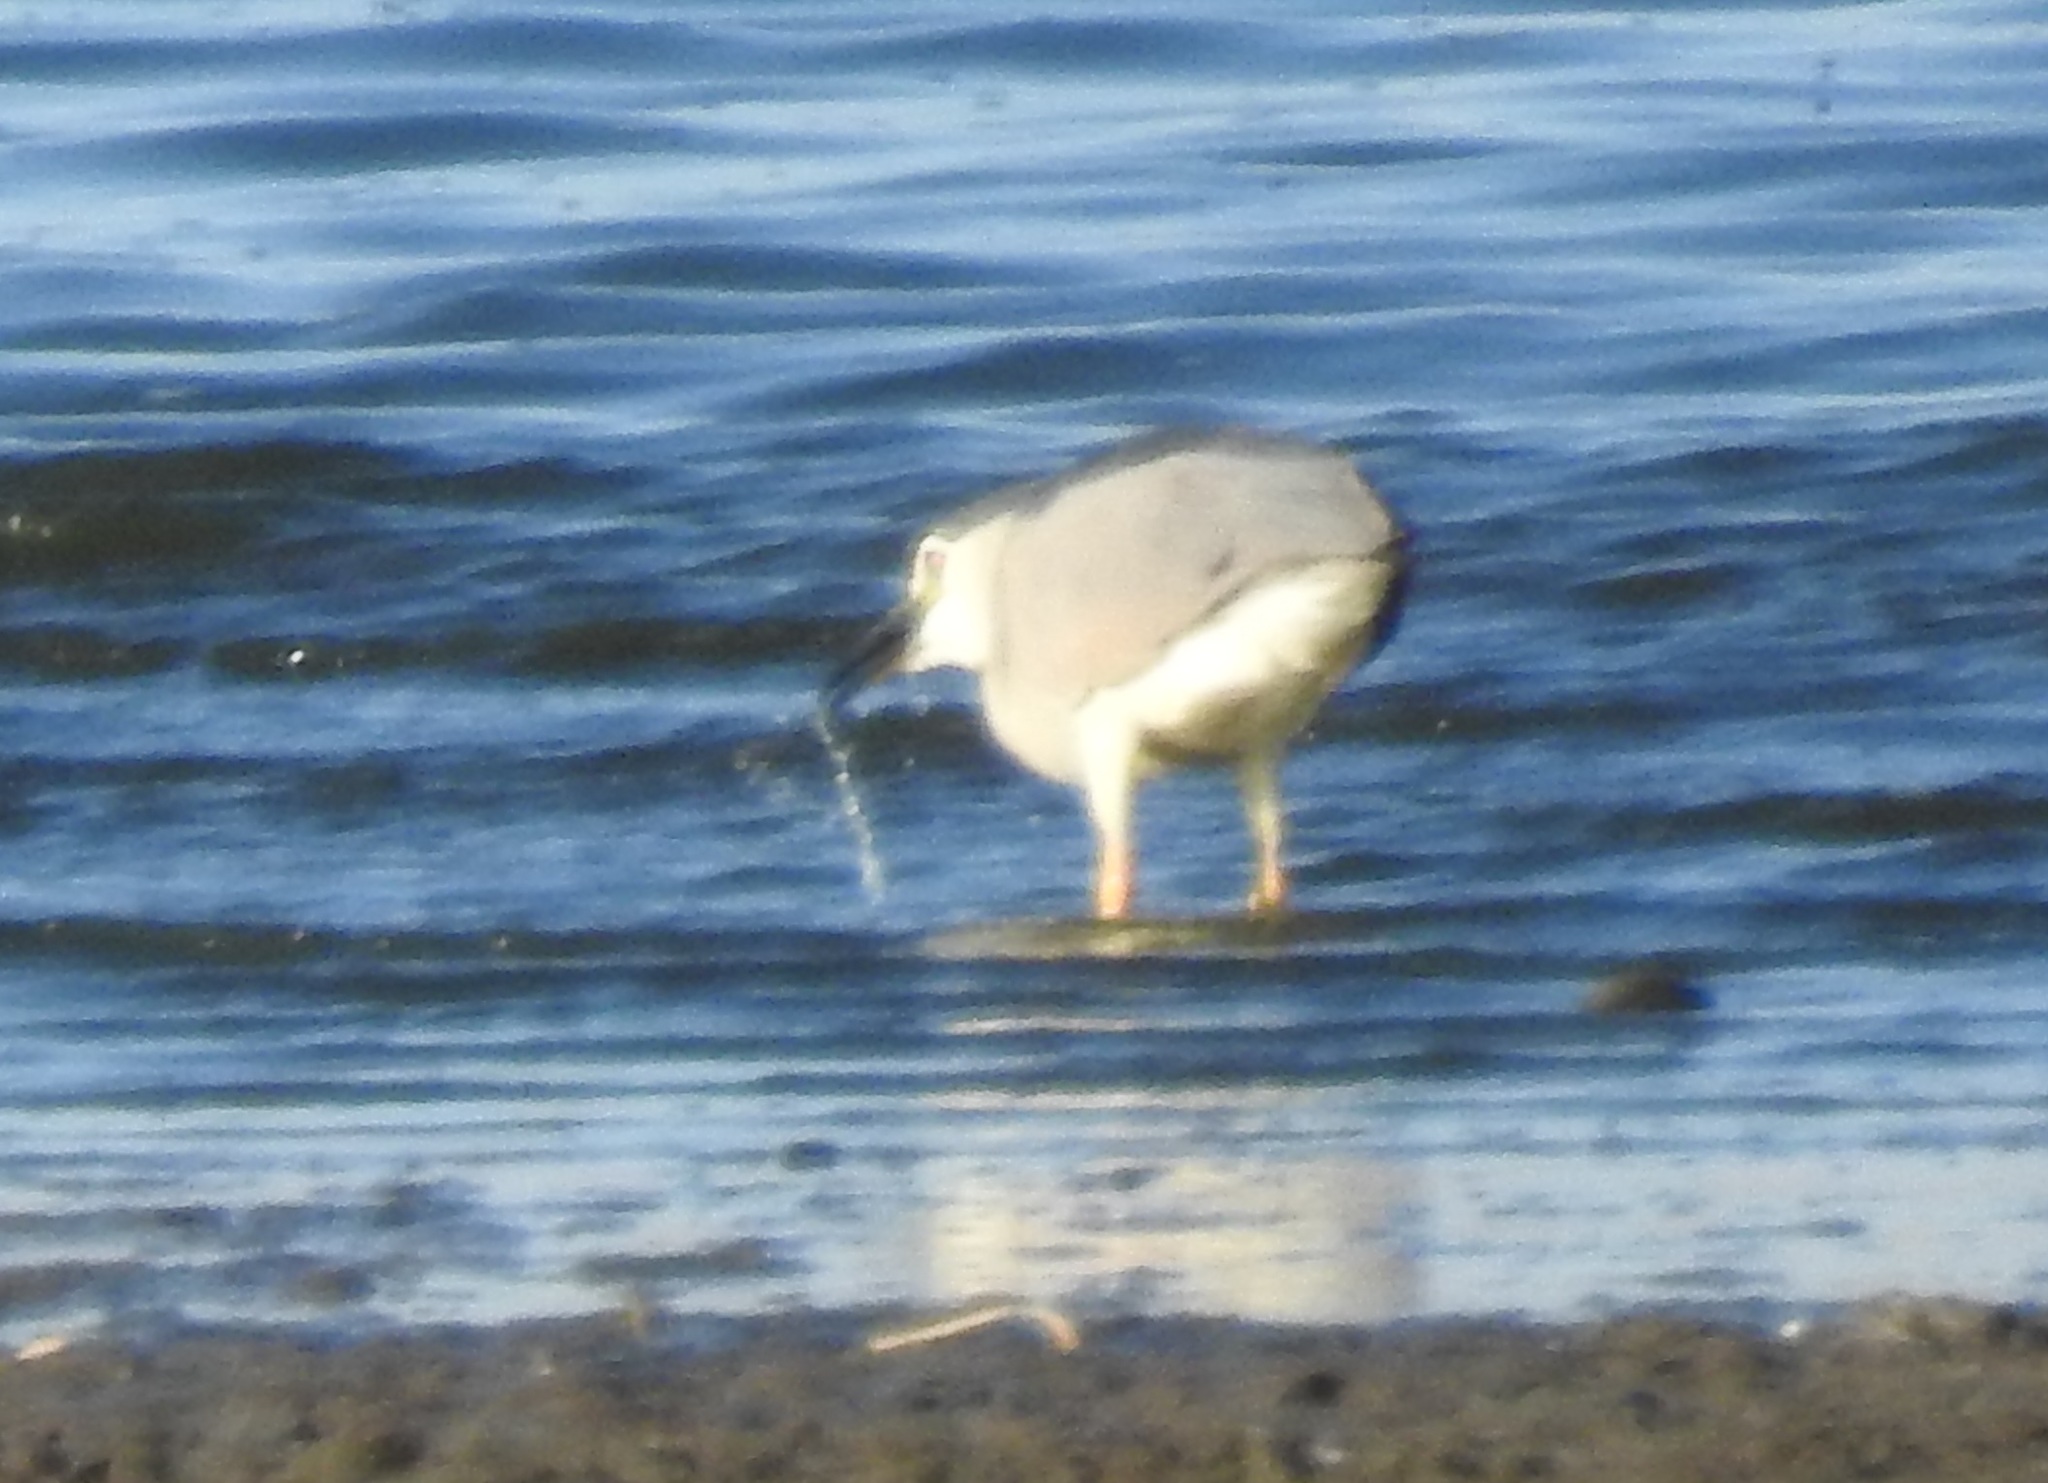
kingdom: Animalia
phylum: Chordata
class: Aves
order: Pelecaniformes
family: Ardeidae
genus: Nycticorax
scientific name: Nycticorax nycticorax
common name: Black-crowned night heron
